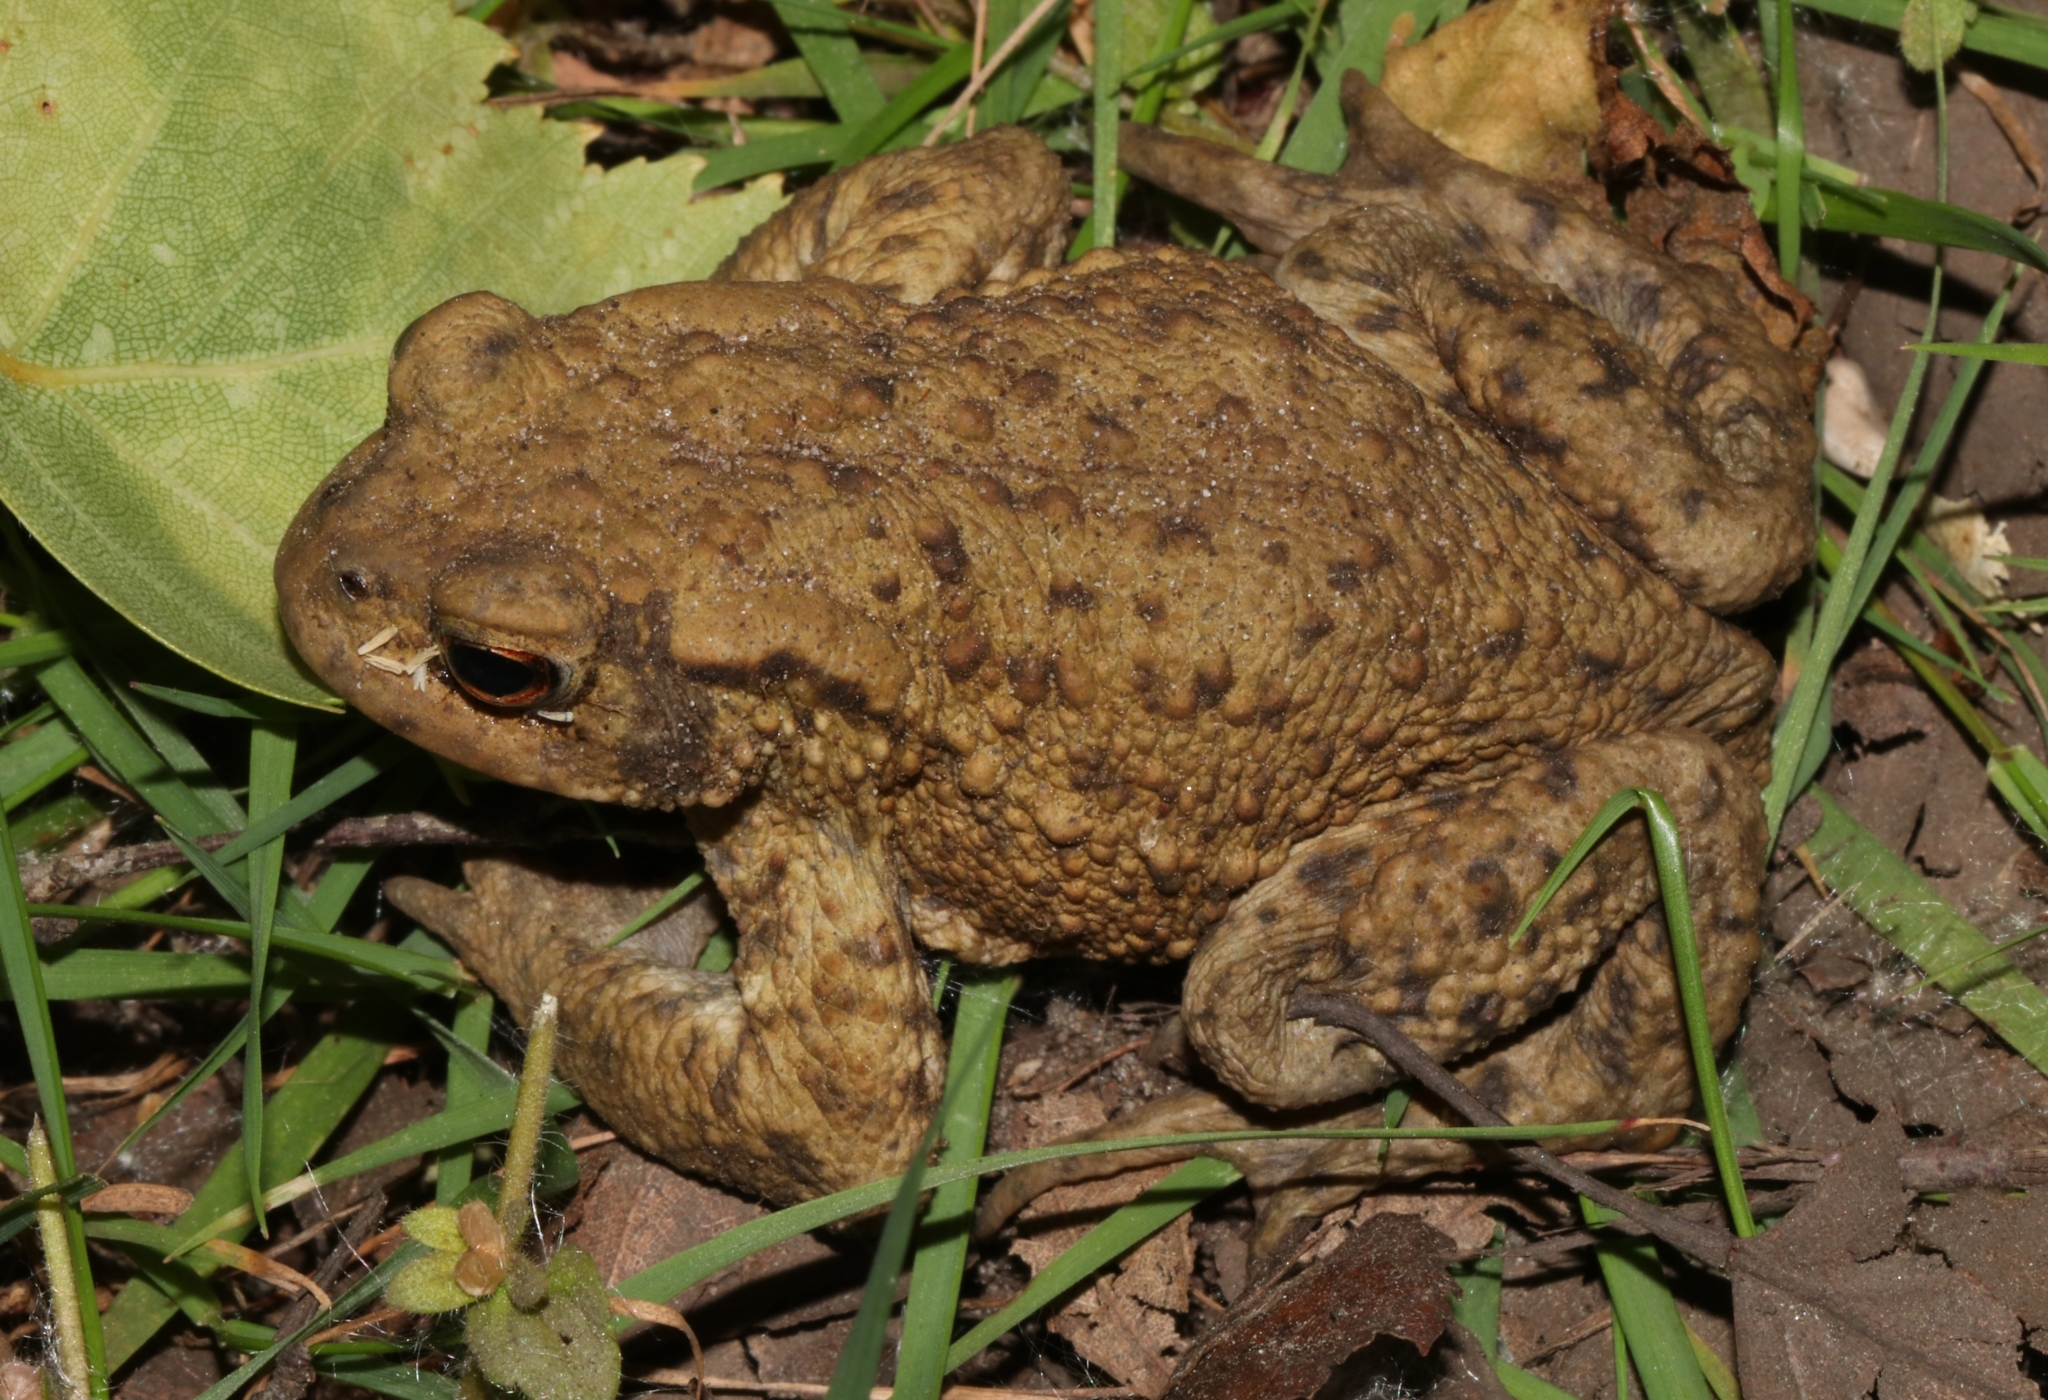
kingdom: Animalia
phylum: Chordata
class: Amphibia
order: Anura
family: Bufonidae
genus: Bufo
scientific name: Bufo bufo
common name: Common toad
